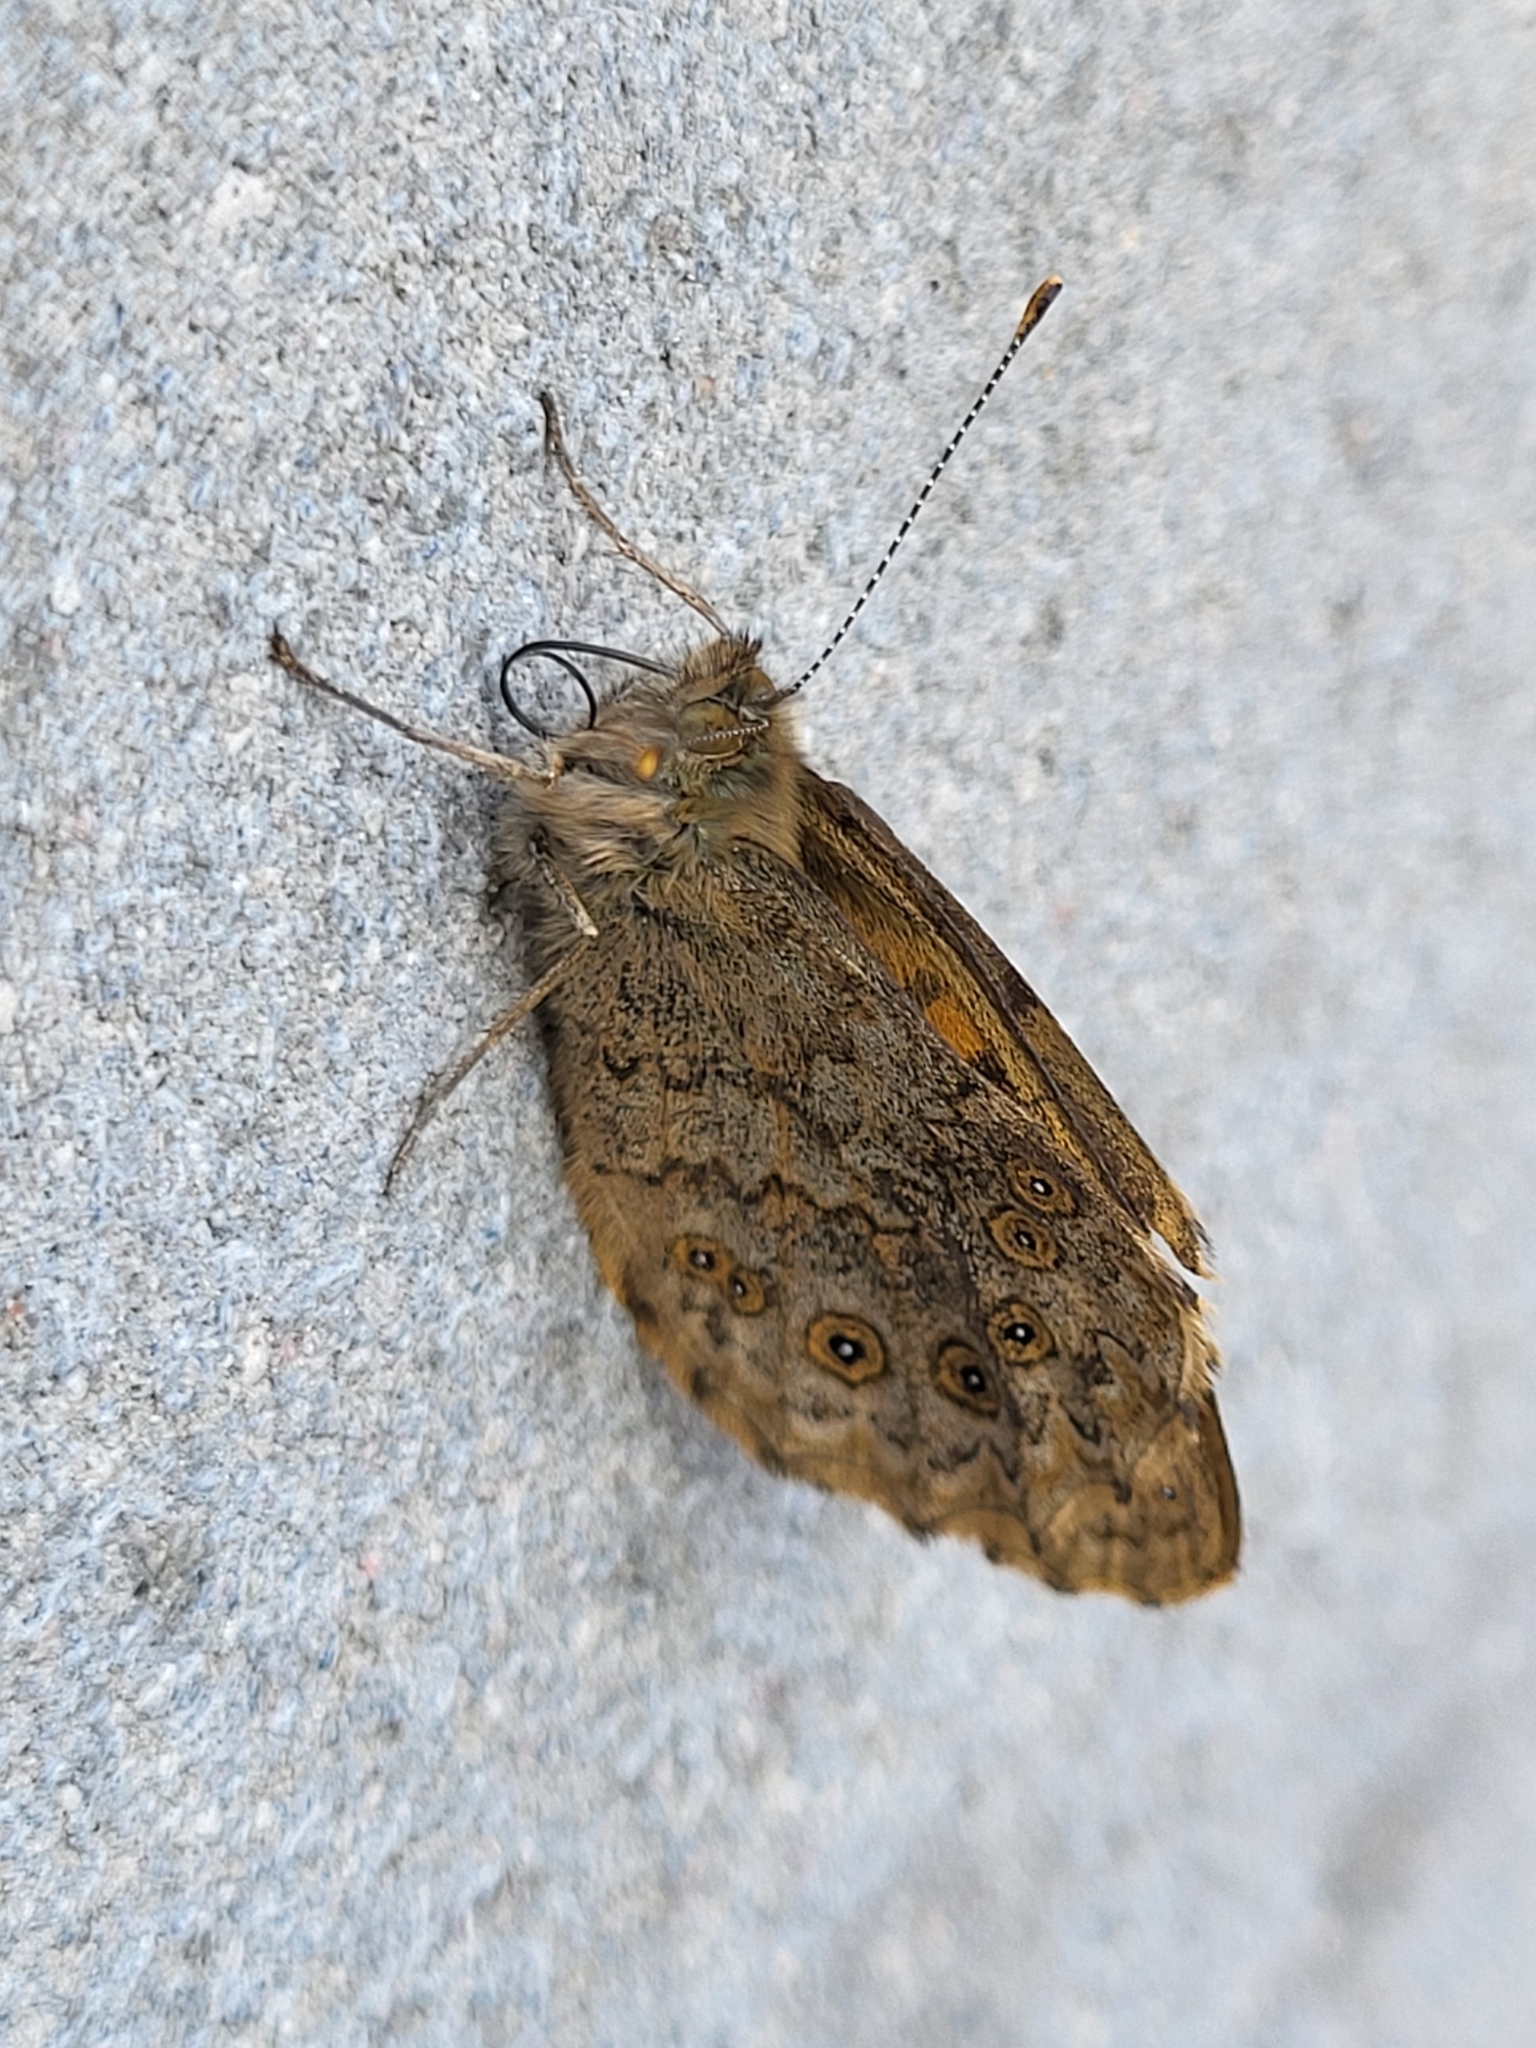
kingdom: Animalia
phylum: Arthropoda
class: Insecta
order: Lepidoptera
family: Nymphalidae
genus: Pararge
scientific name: Pararge Lasiommata megera
